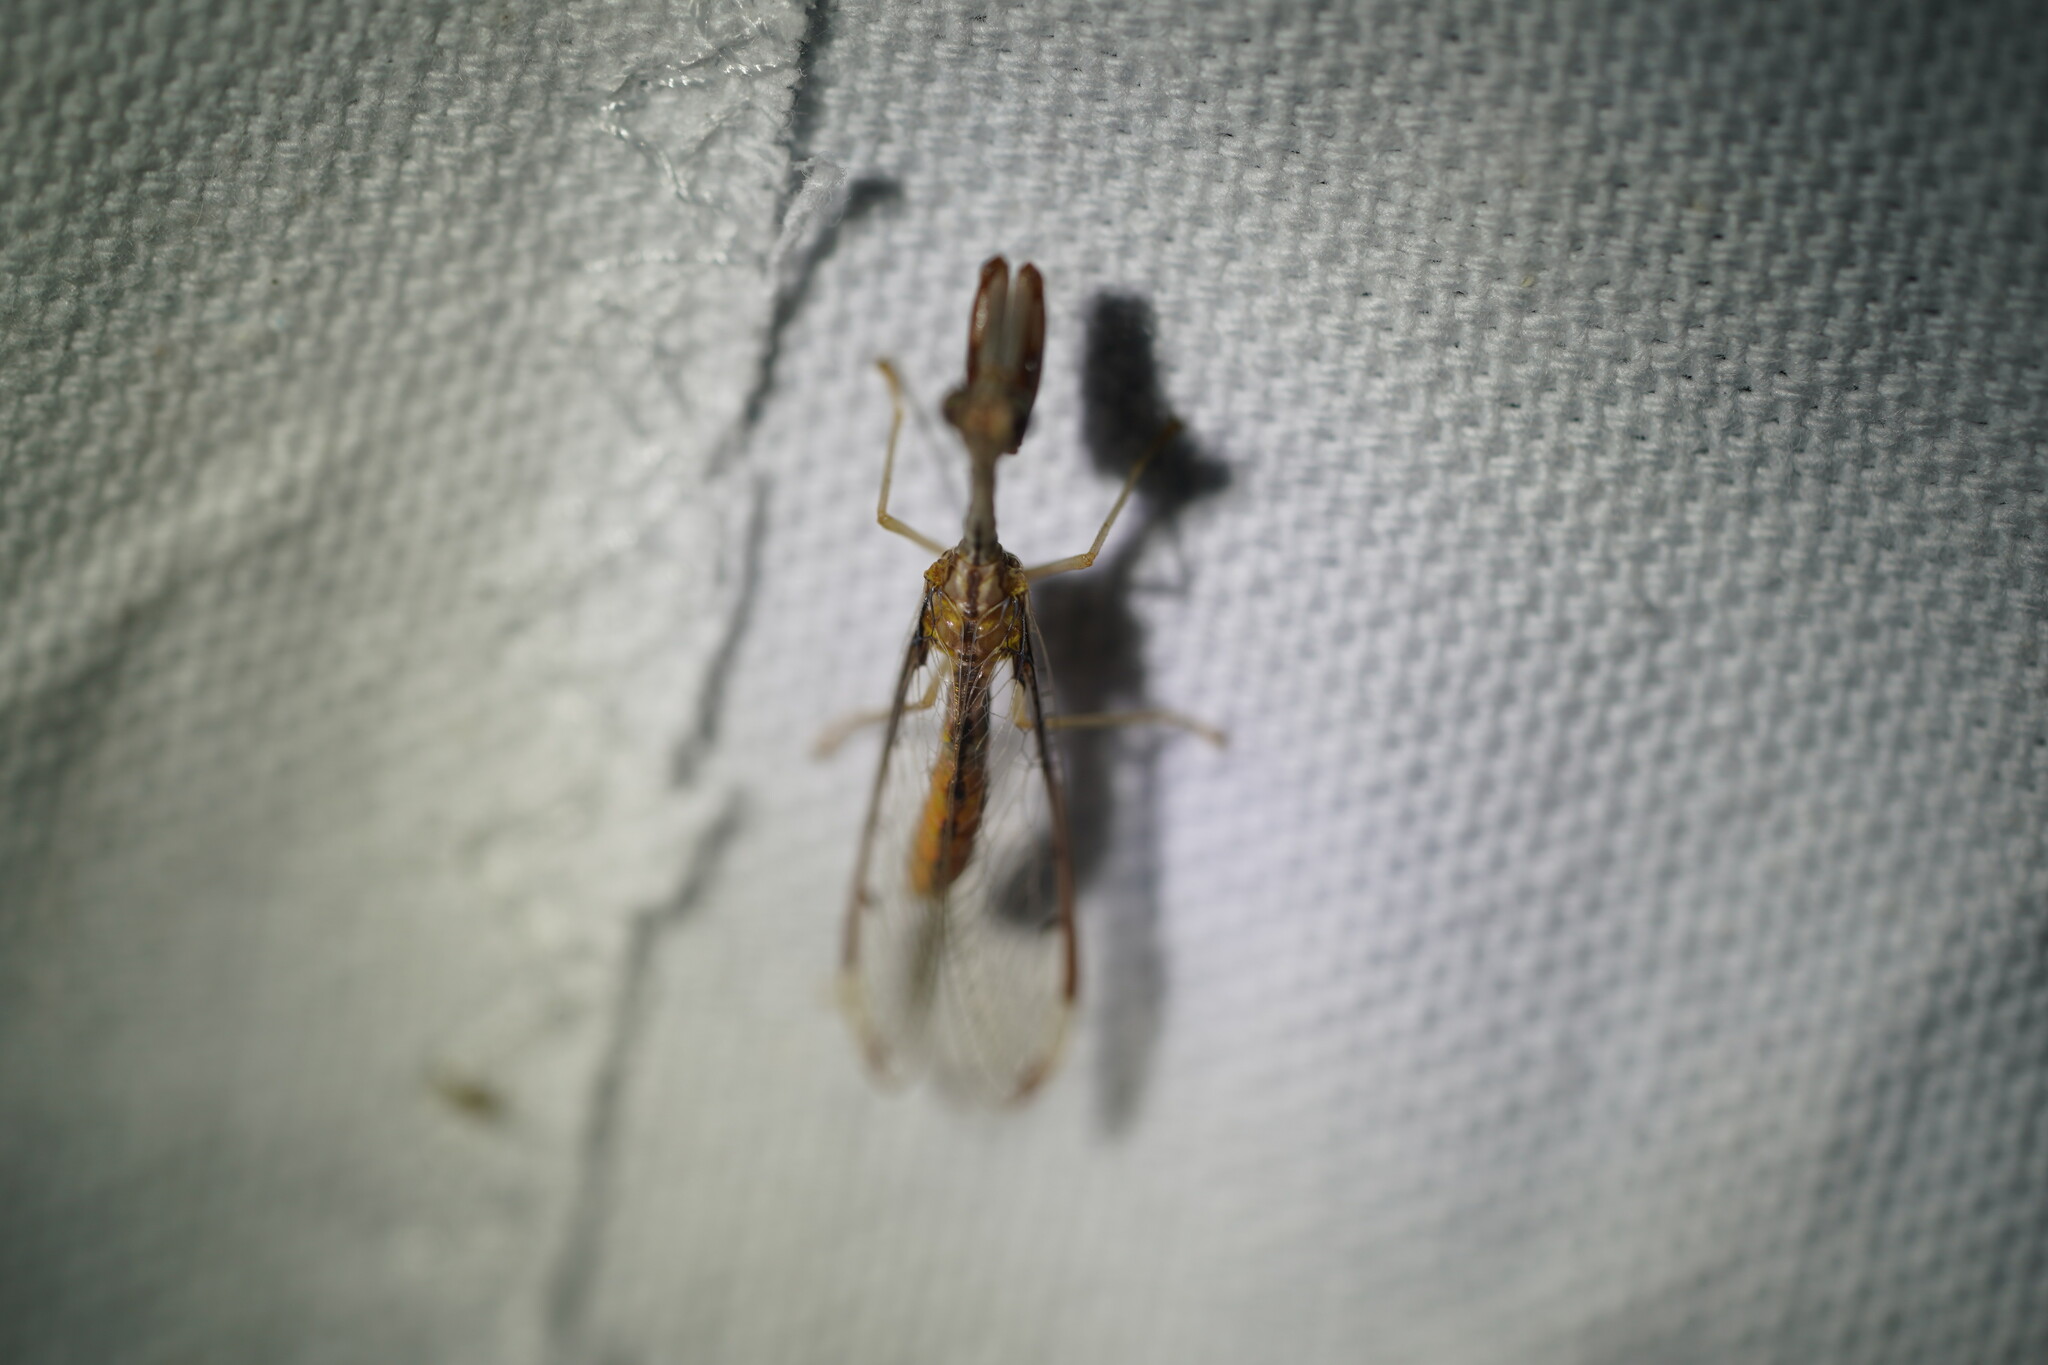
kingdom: Animalia
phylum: Arthropoda
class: Insecta
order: Neuroptera
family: Mantispidae
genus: Dicromantispa
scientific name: Dicromantispa interrupta
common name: Four-spotted mantidfly
